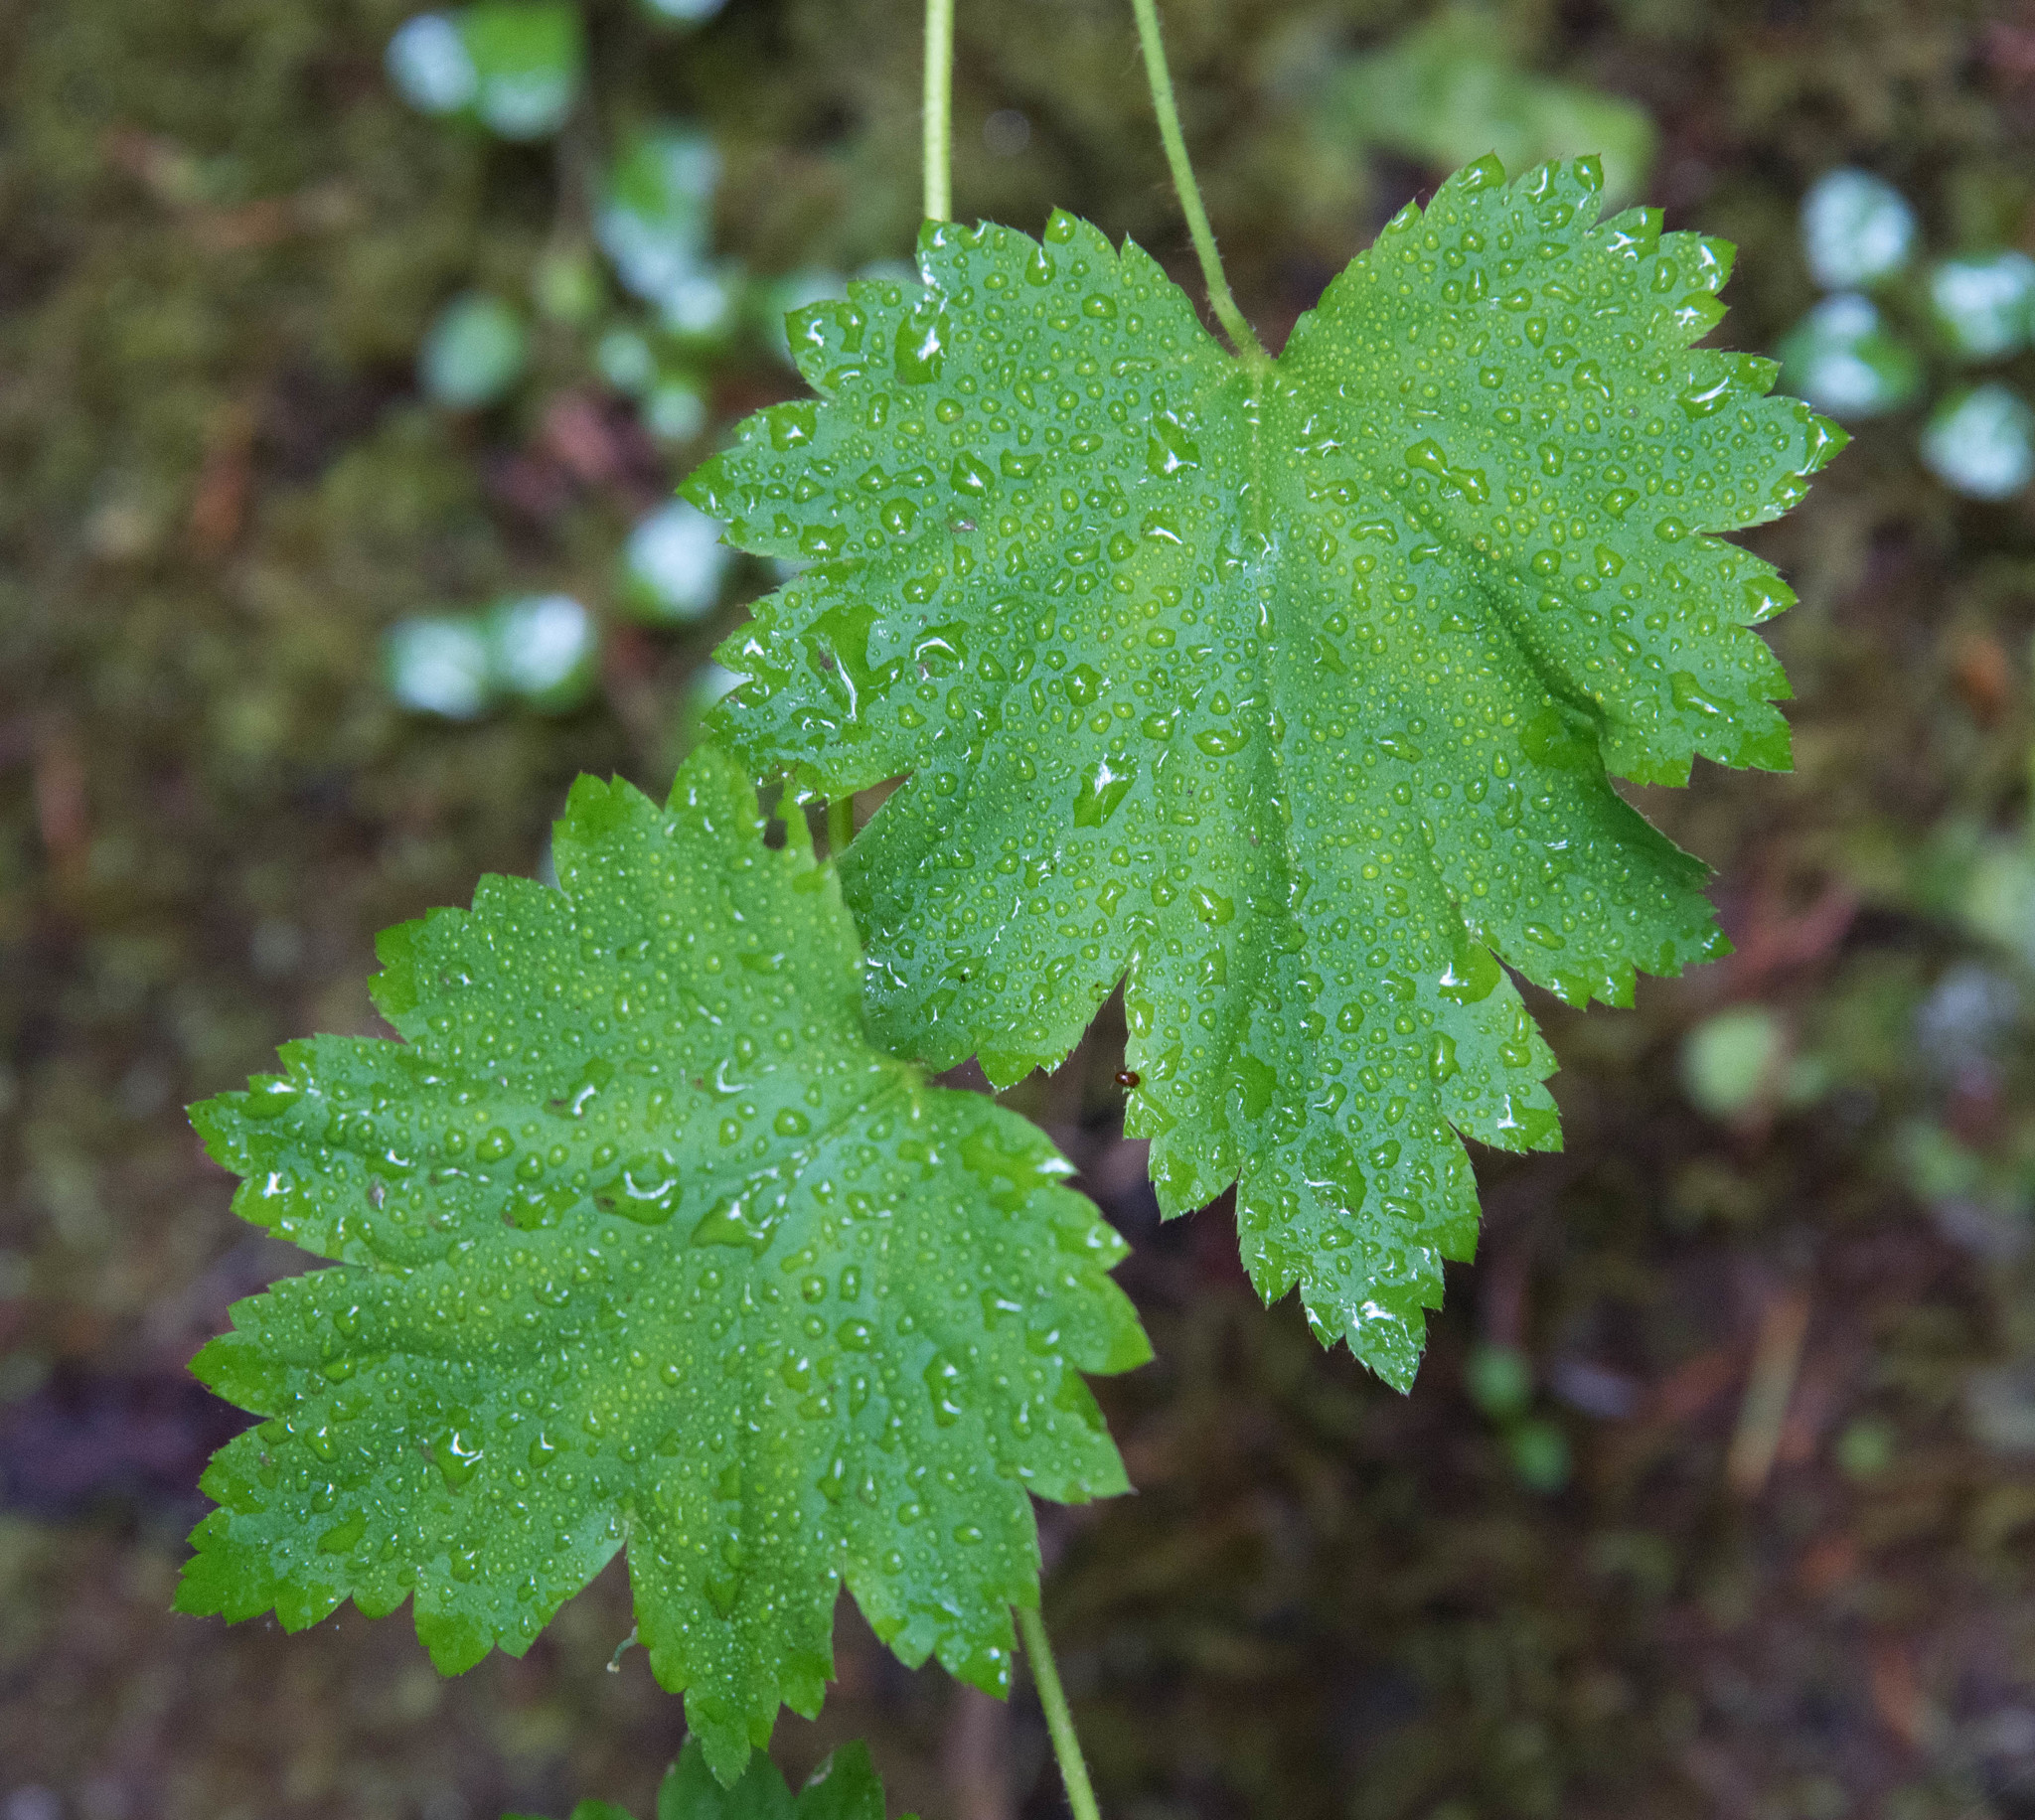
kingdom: Plantae
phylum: Tracheophyta
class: Magnoliopsida
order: Saxifragales
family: Saxifragaceae
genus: Boykinia
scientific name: Boykinia occidentalis
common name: Coast boykinia
